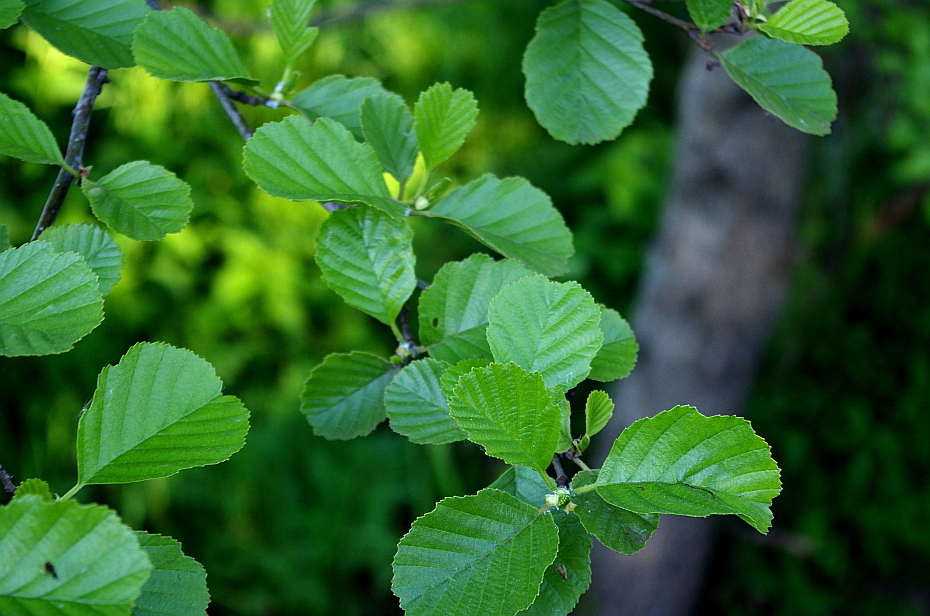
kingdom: Plantae
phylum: Tracheophyta
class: Magnoliopsida
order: Fagales
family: Betulaceae
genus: Alnus
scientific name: Alnus glutinosa
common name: Black alder
